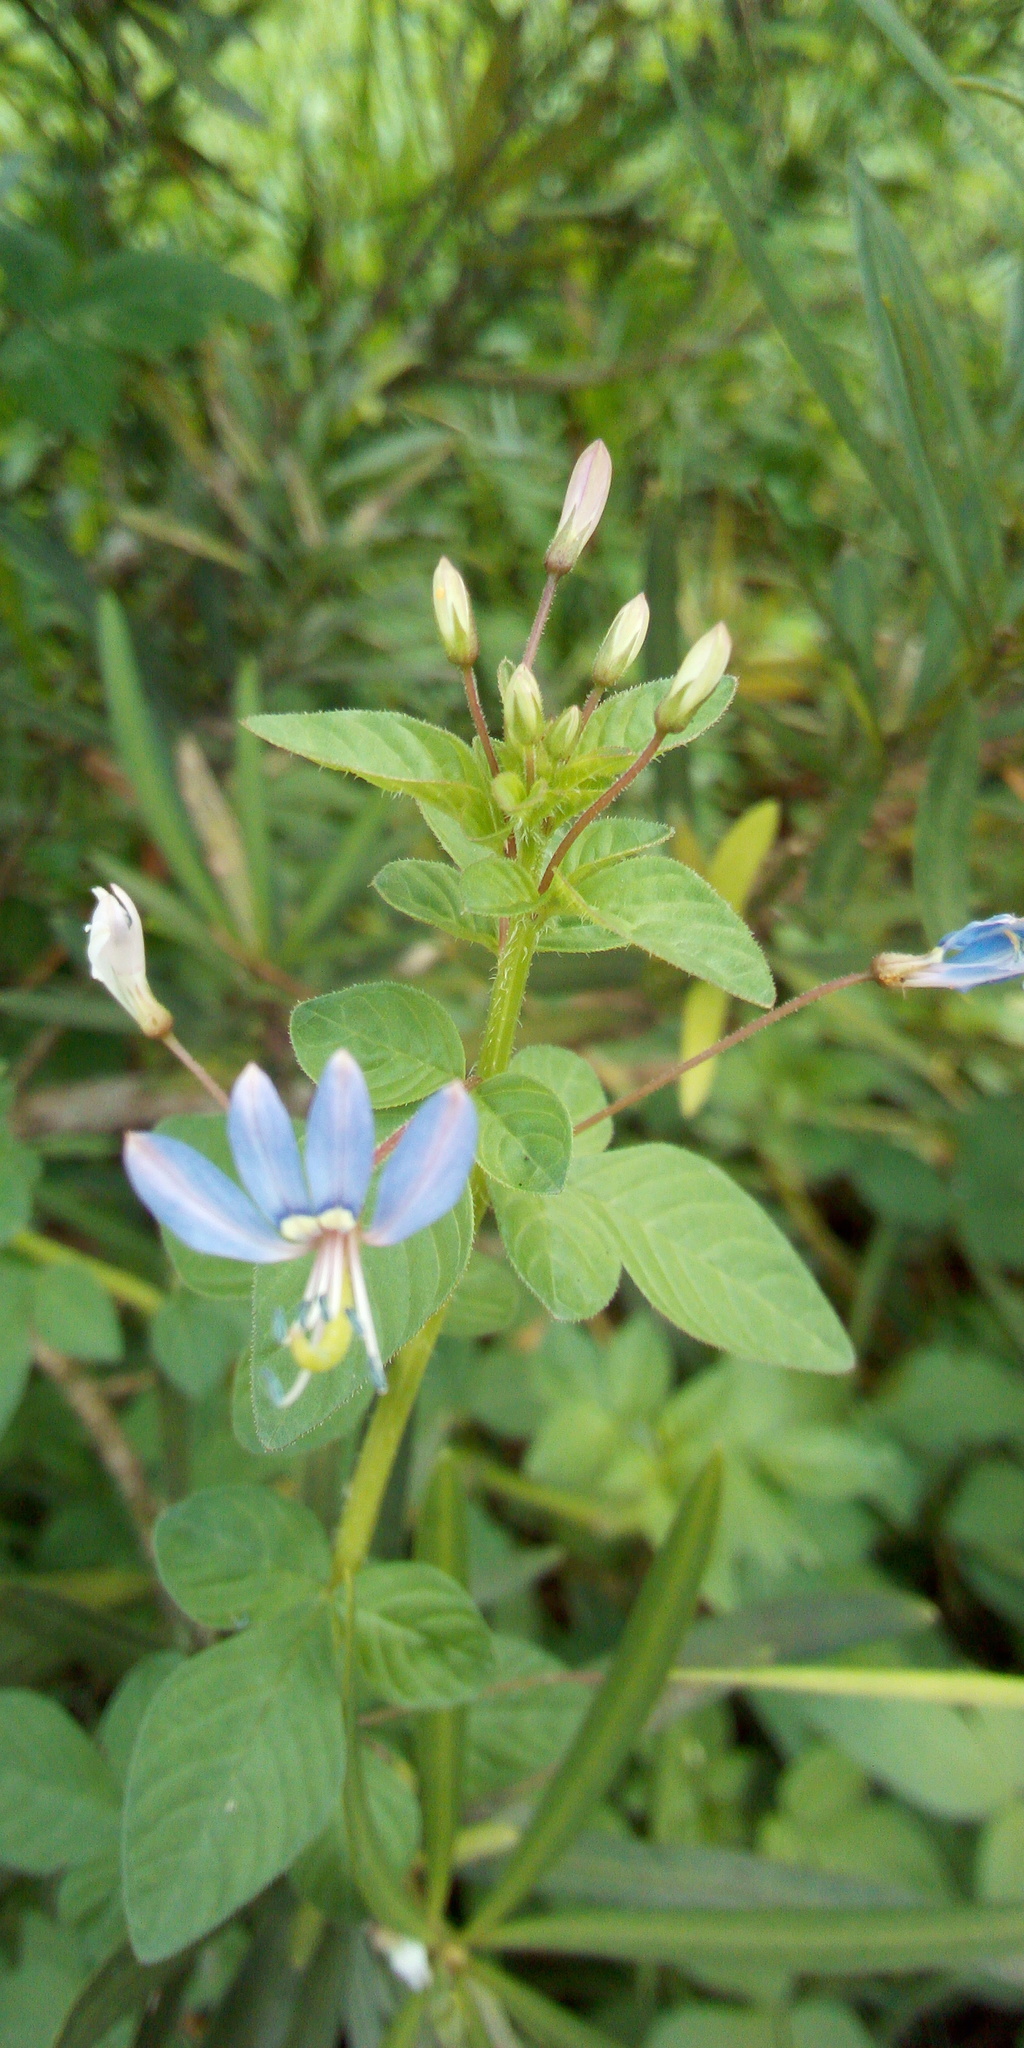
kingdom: Plantae
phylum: Tracheophyta
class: Magnoliopsida
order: Brassicales
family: Cleomaceae
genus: Sieruela
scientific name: Sieruela rutidosperma
